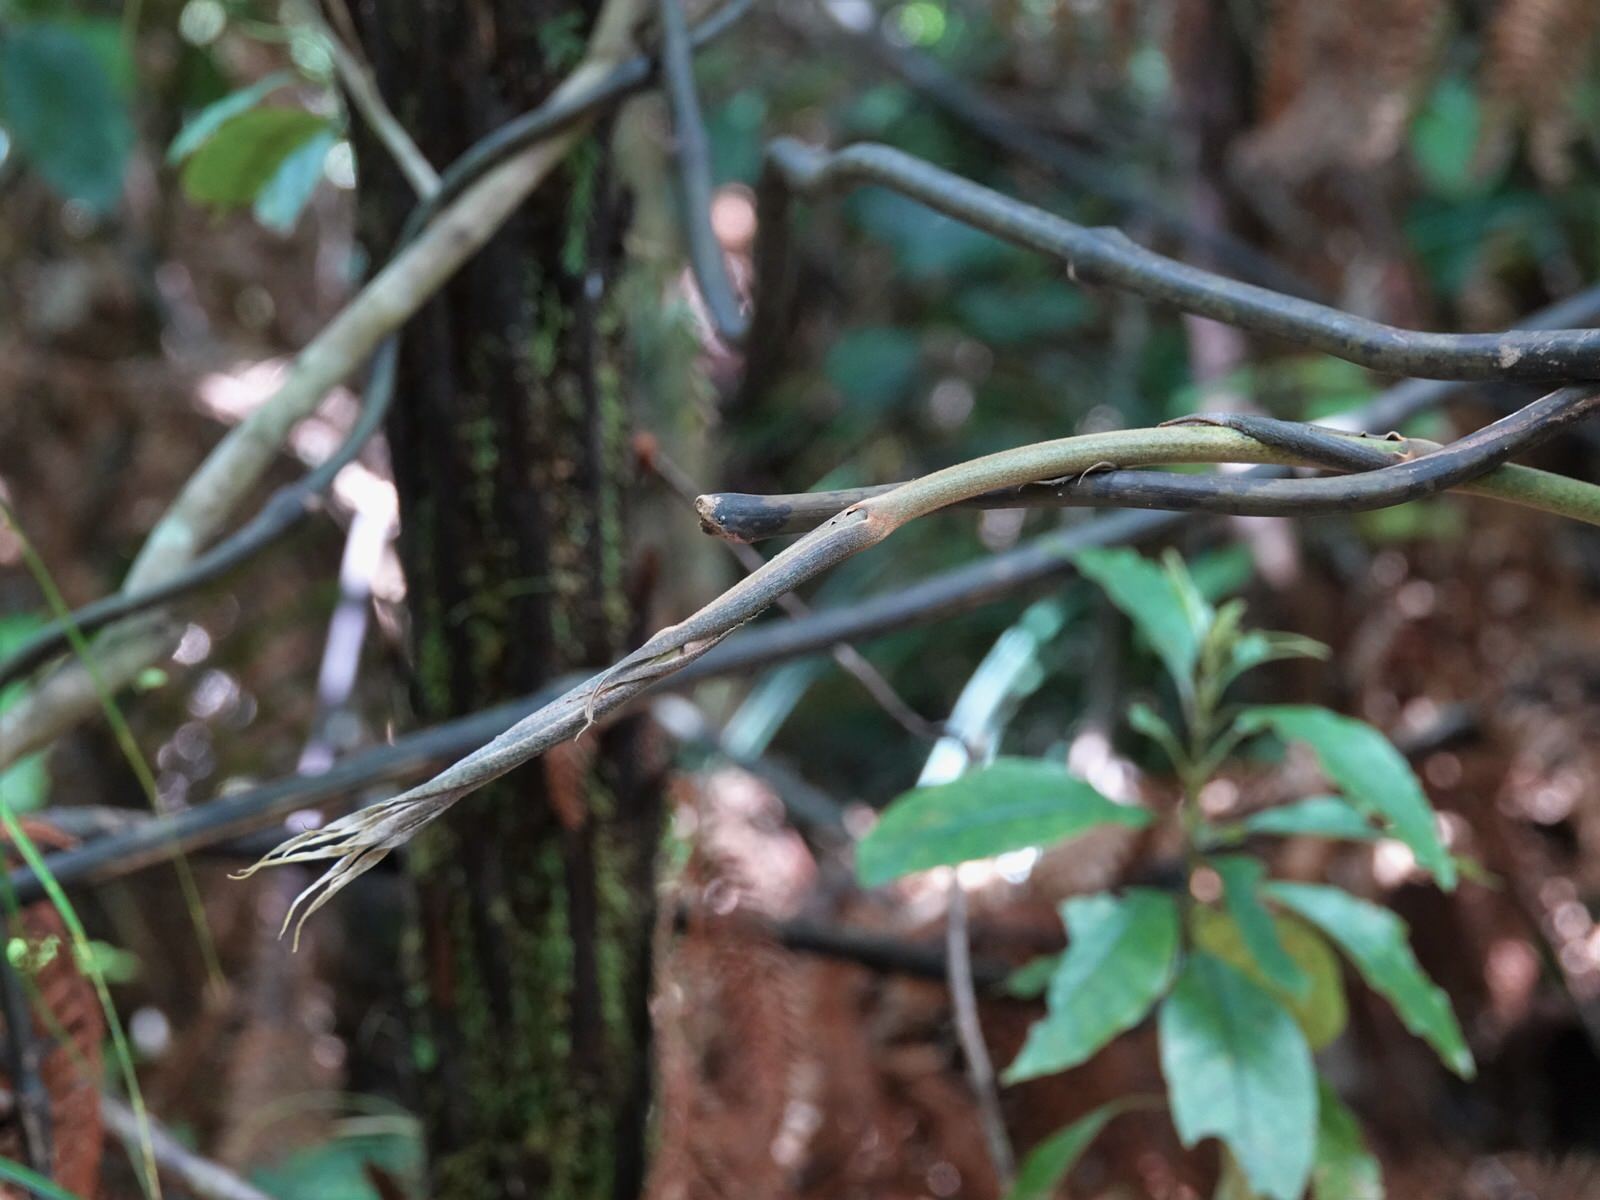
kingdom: Plantae
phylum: Tracheophyta
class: Liliopsida
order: Liliales
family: Ripogonaceae
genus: Ripogonum
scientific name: Ripogonum scandens
